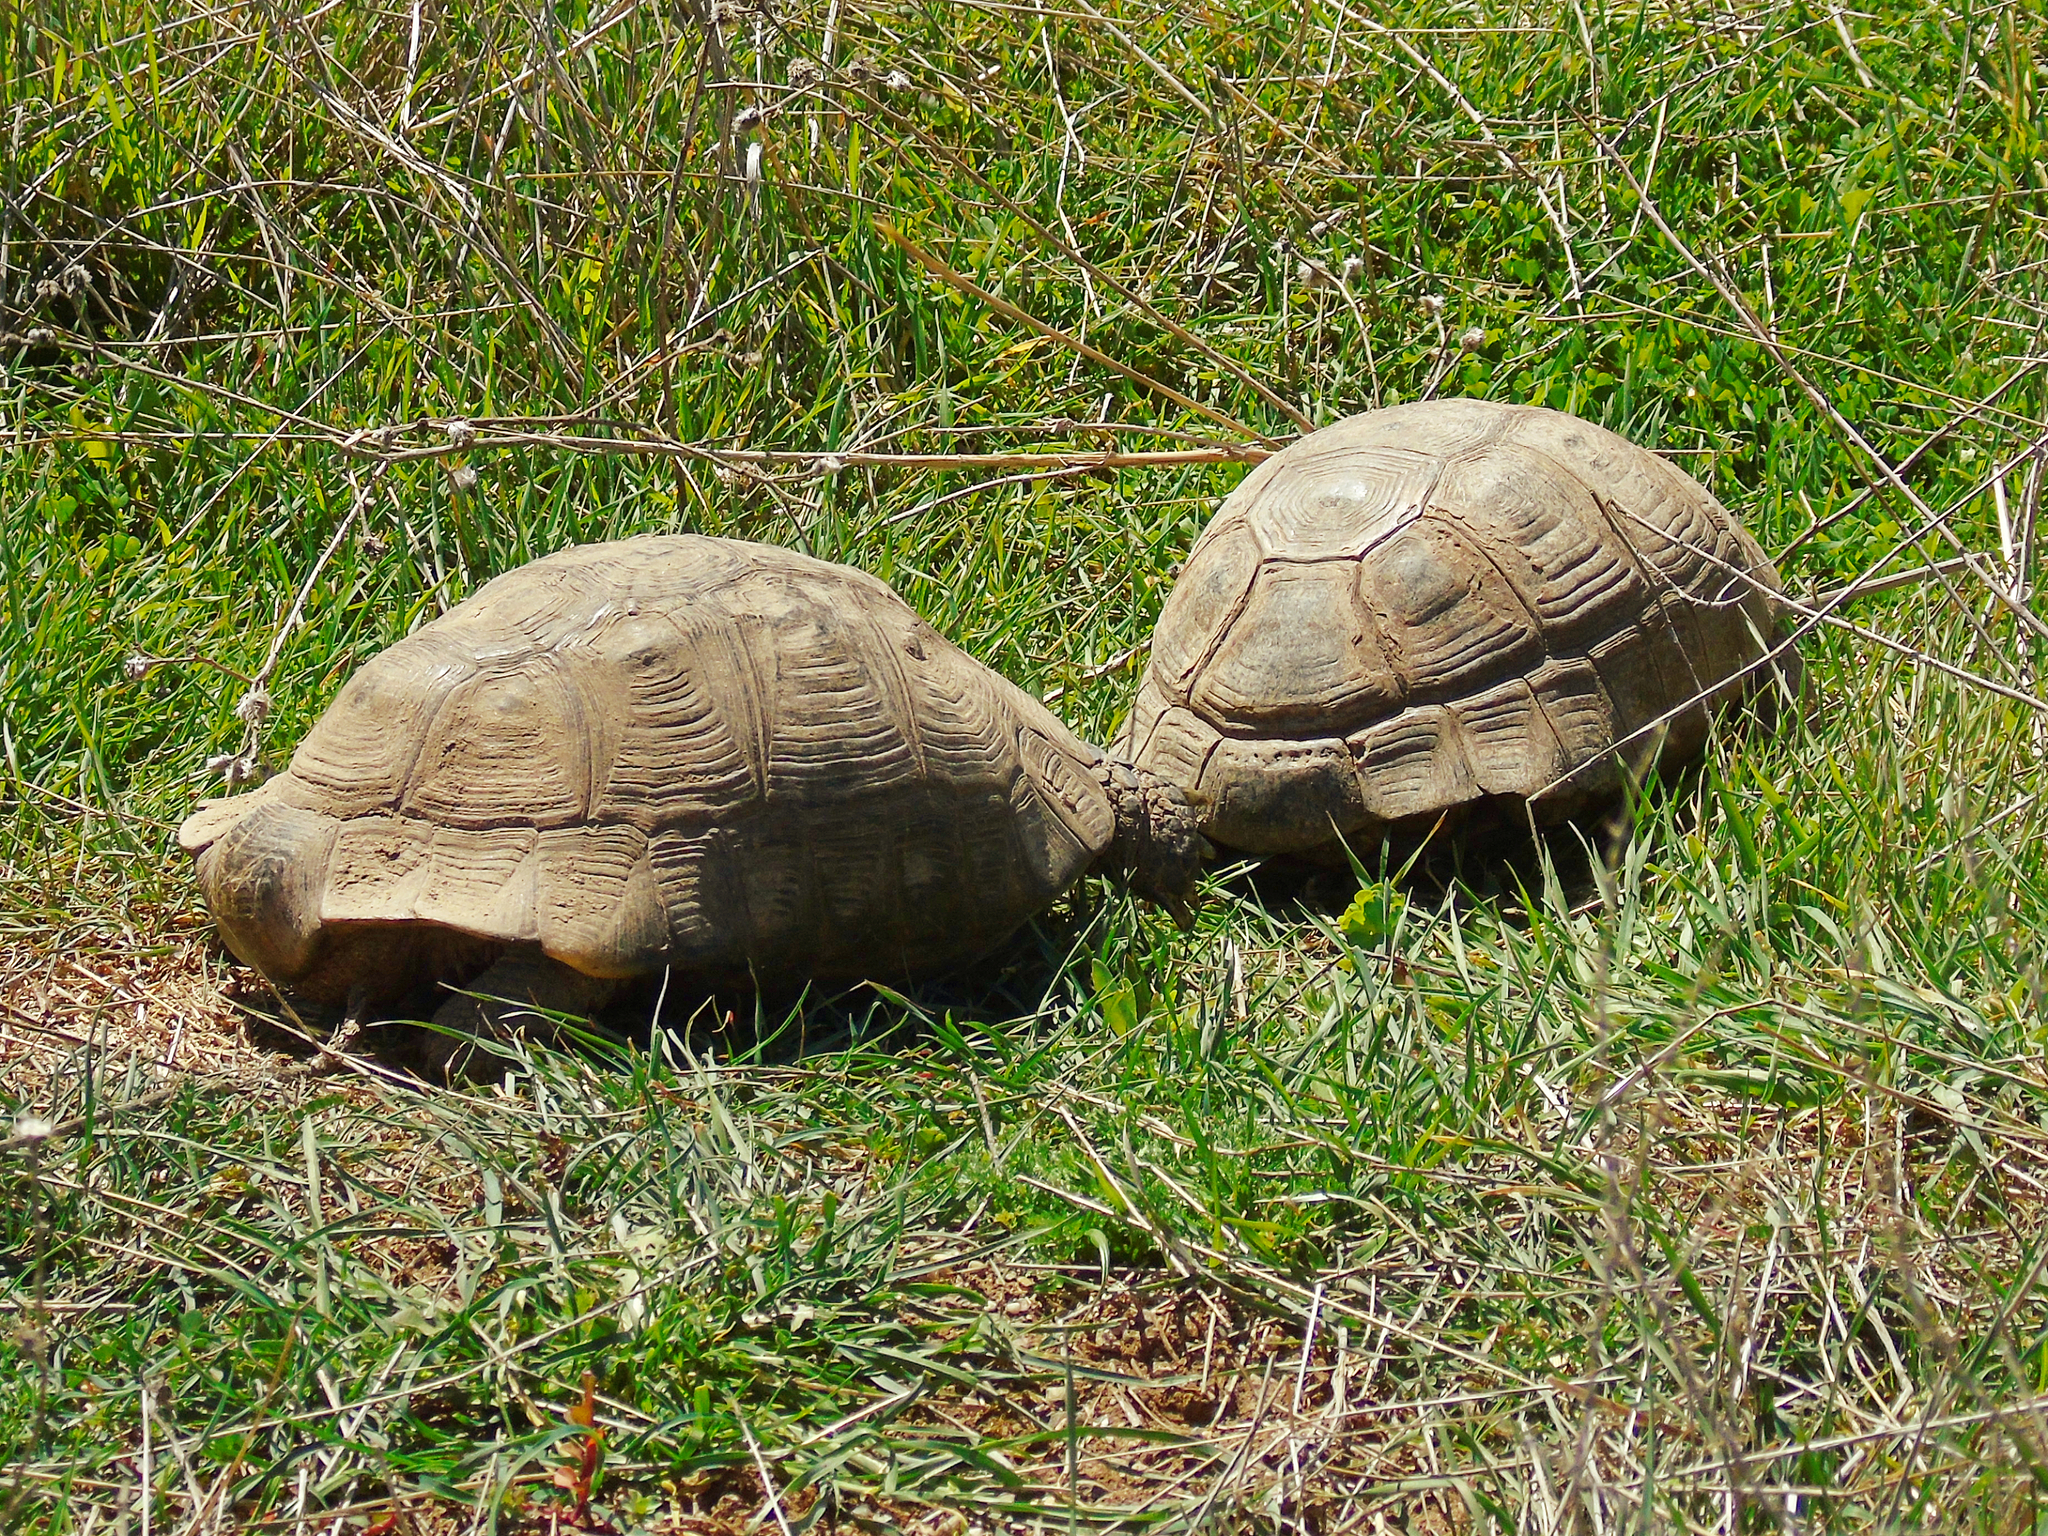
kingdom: Animalia
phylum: Chordata
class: Testudines
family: Testudinidae
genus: Testudo
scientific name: Testudo graeca
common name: Common tortoise
